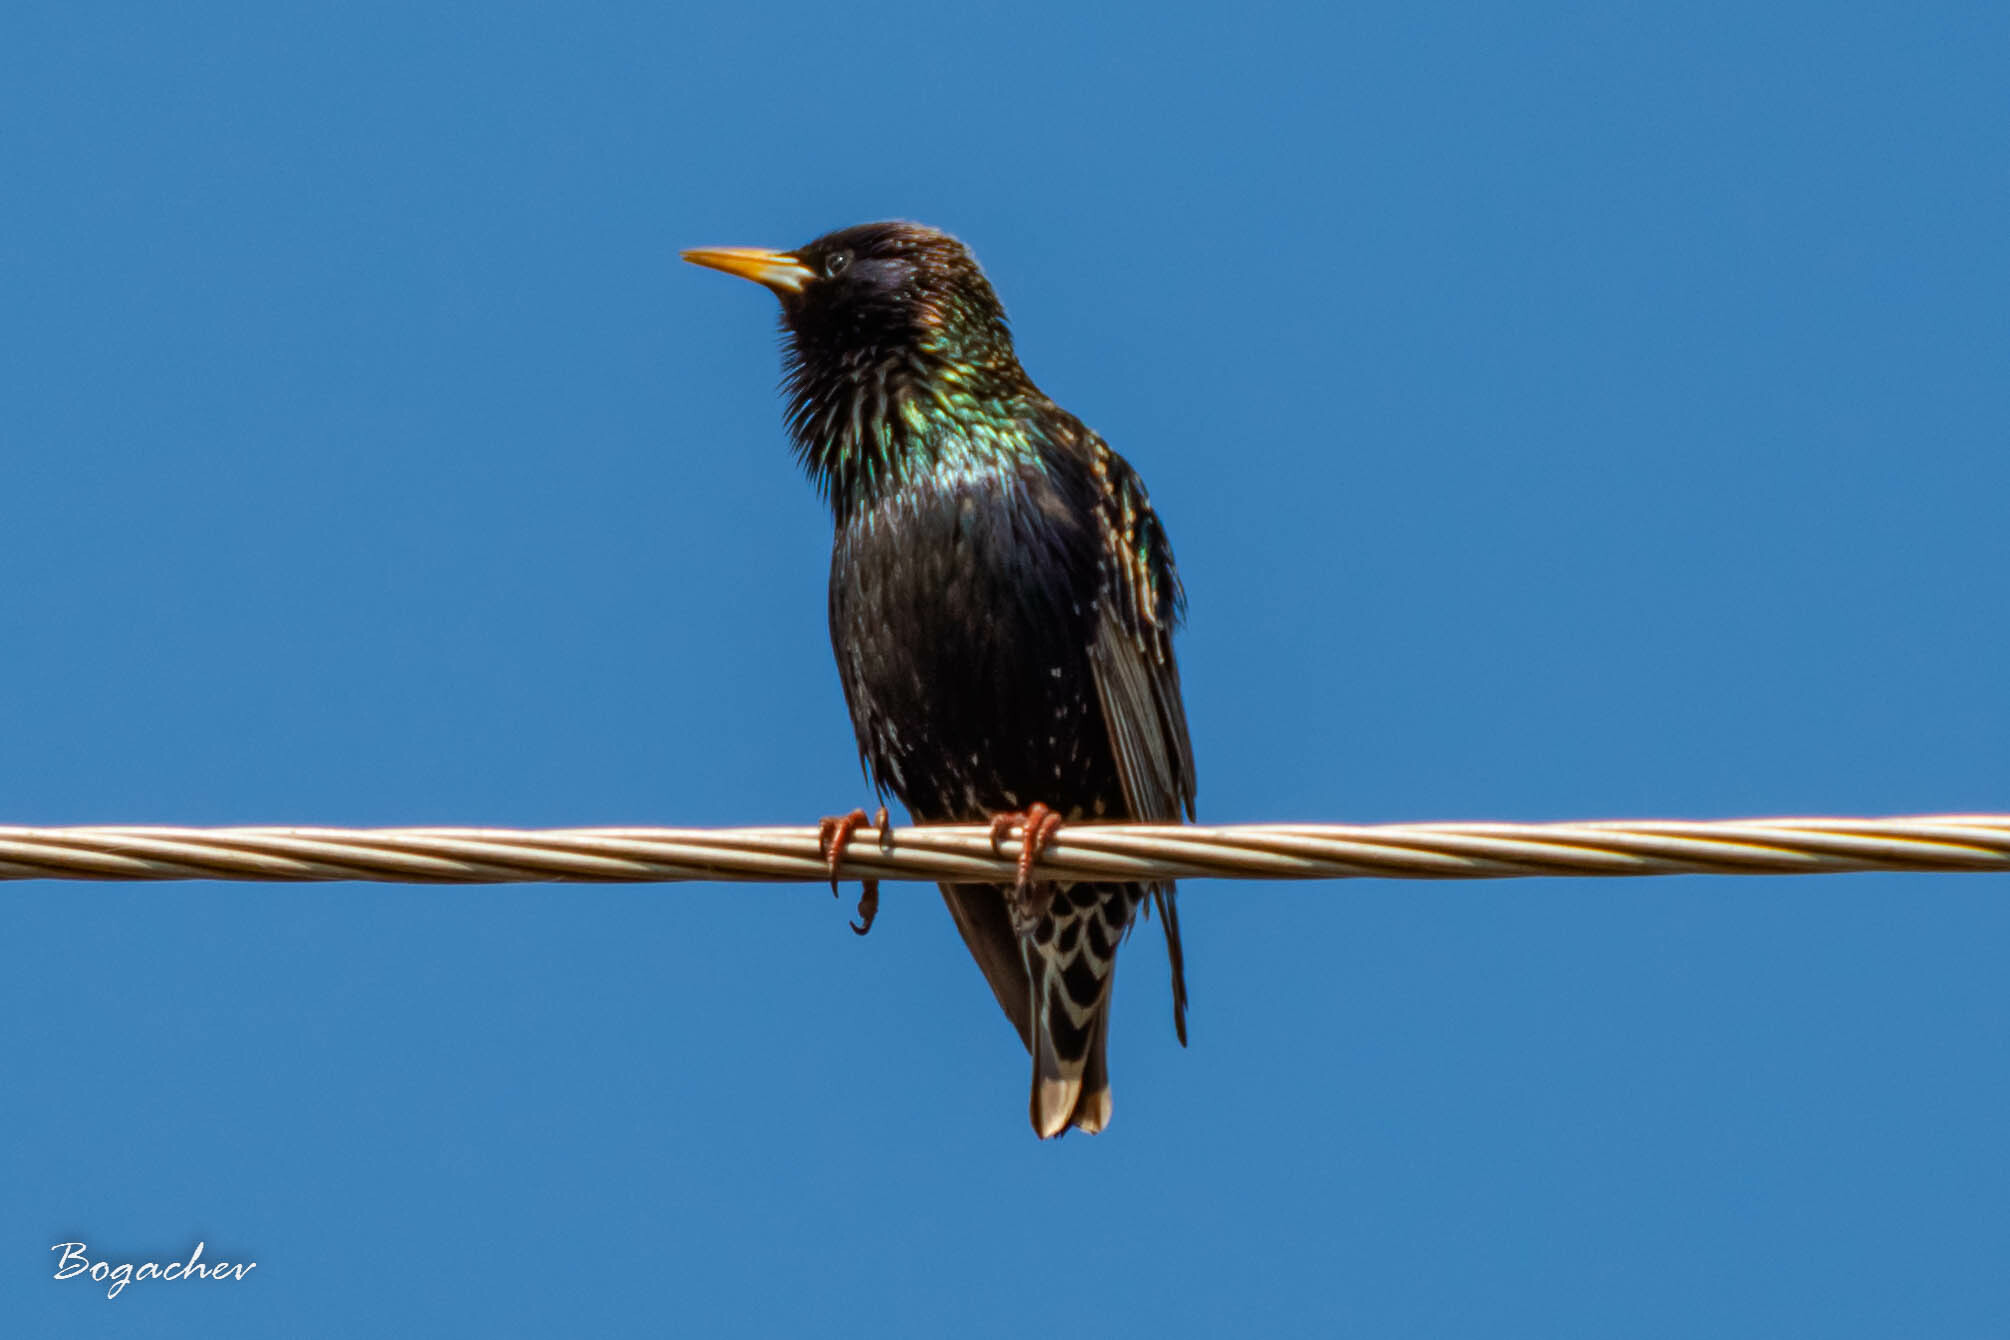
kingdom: Animalia
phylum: Chordata
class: Aves
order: Passeriformes
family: Sturnidae
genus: Sturnus
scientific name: Sturnus vulgaris
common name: Common starling
